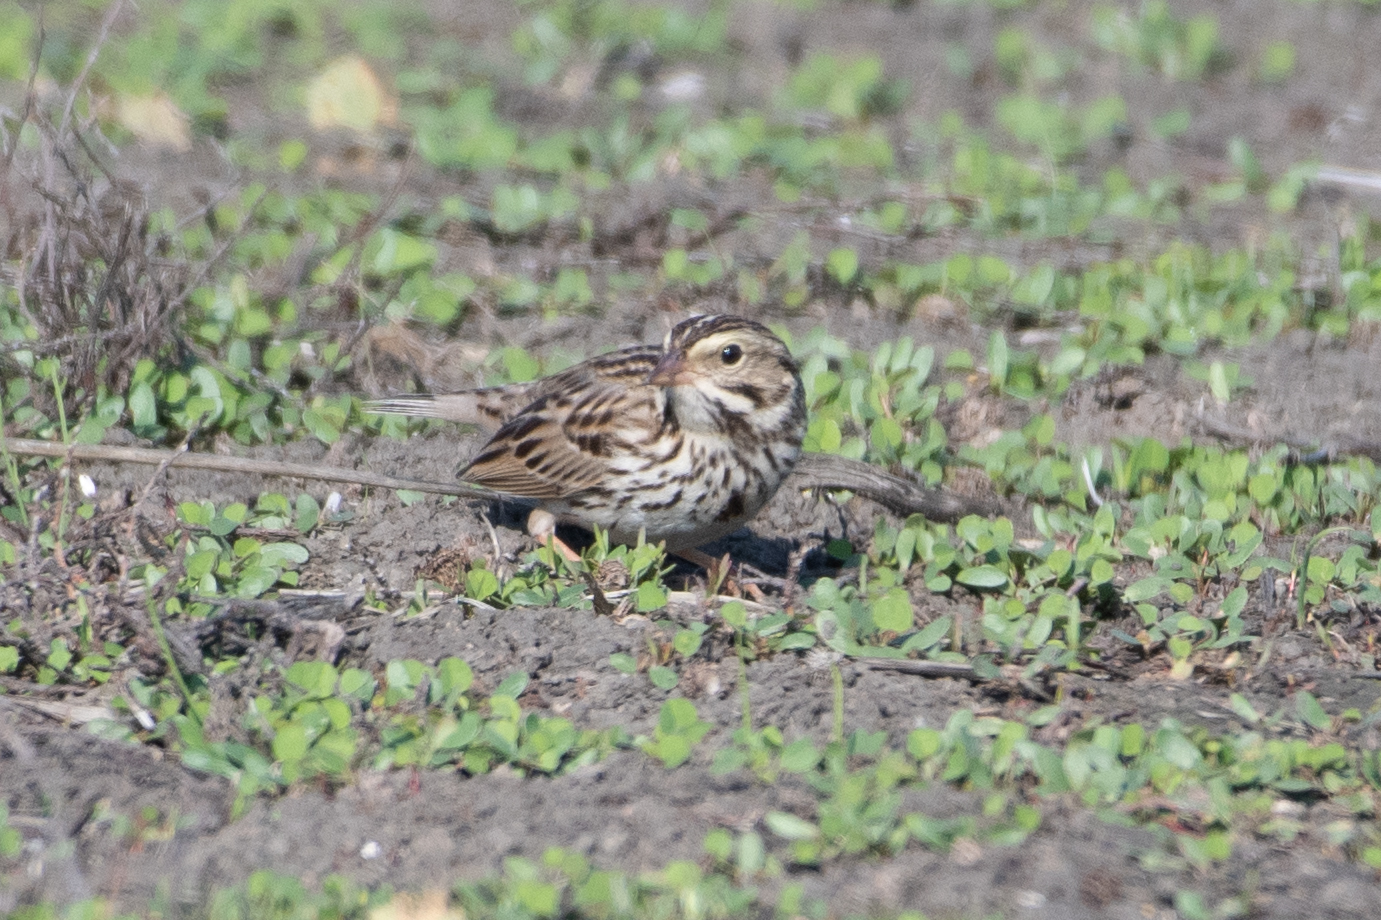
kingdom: Animalia
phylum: Chordata
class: Aves
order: Passeriformes
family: Passerellidae
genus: Passerculus
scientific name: Passerculus sandwichensis
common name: Savannah sparrow
